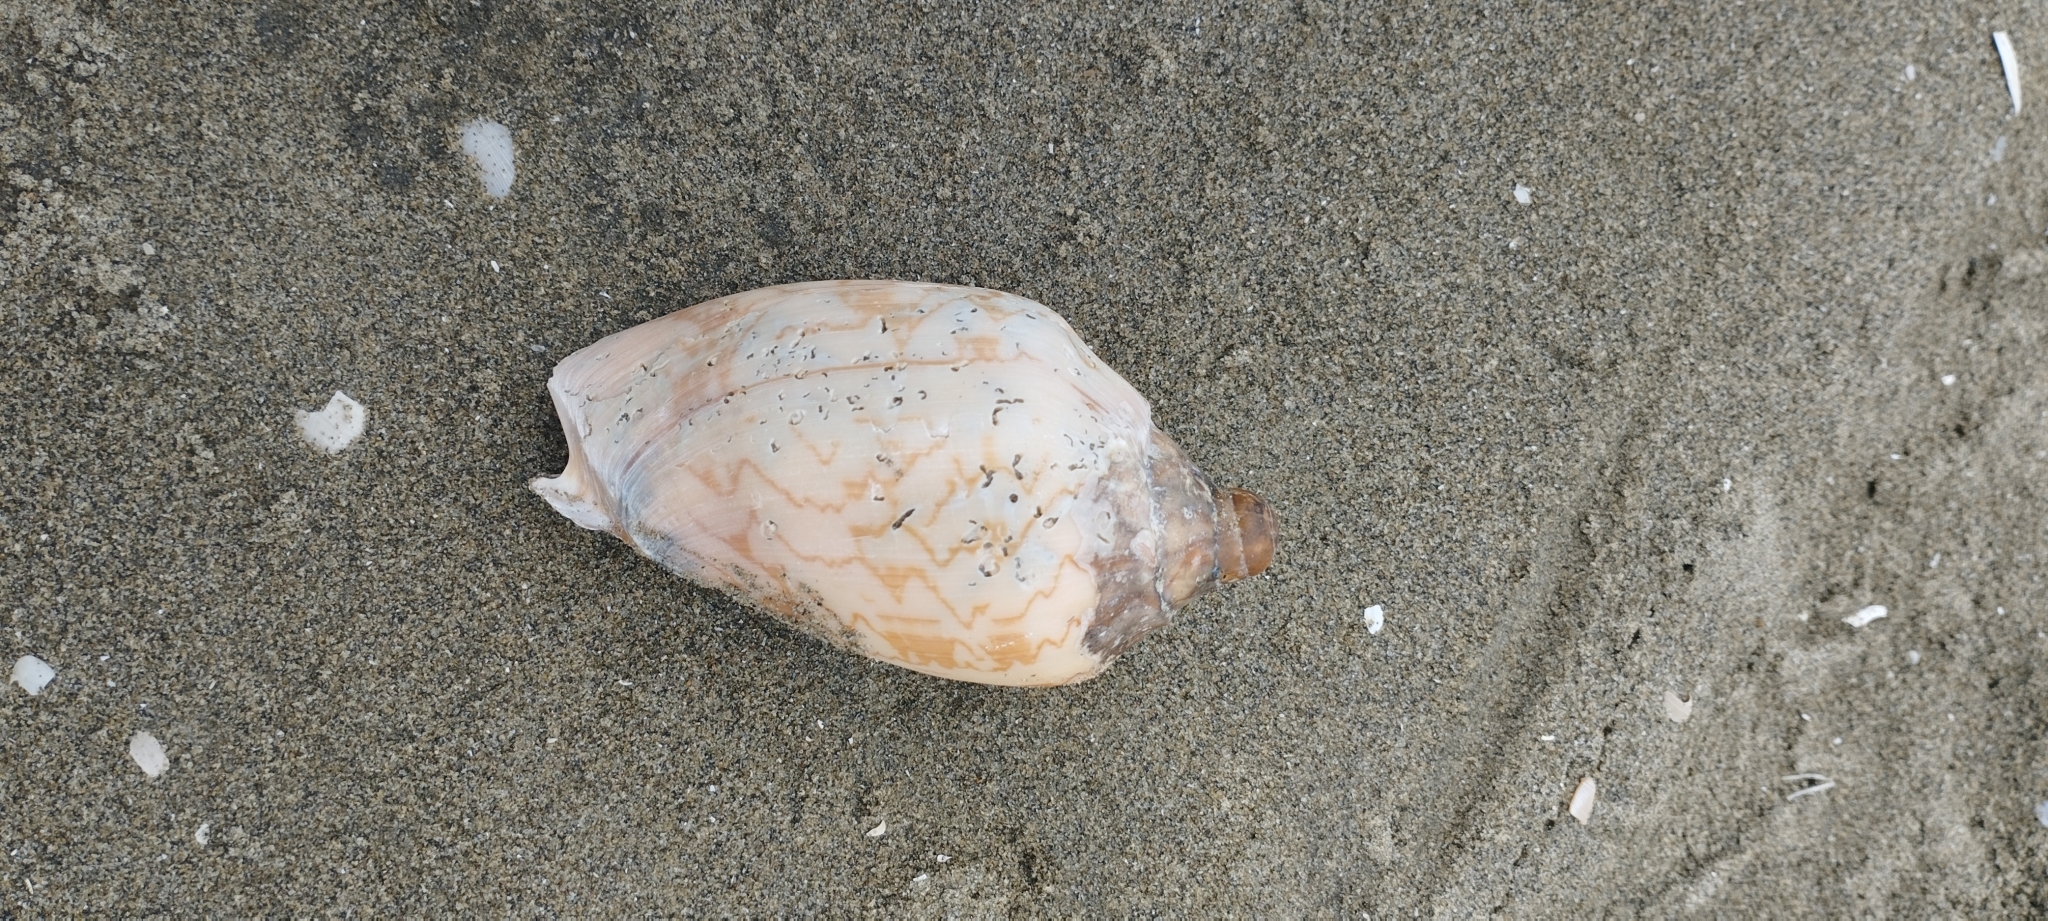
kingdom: Animalia
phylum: Mollusca
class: Gastropoda
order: Neogastropoda
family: Volutidae
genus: Cymbiola
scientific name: Cymbiola nobilis
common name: Noble volute
